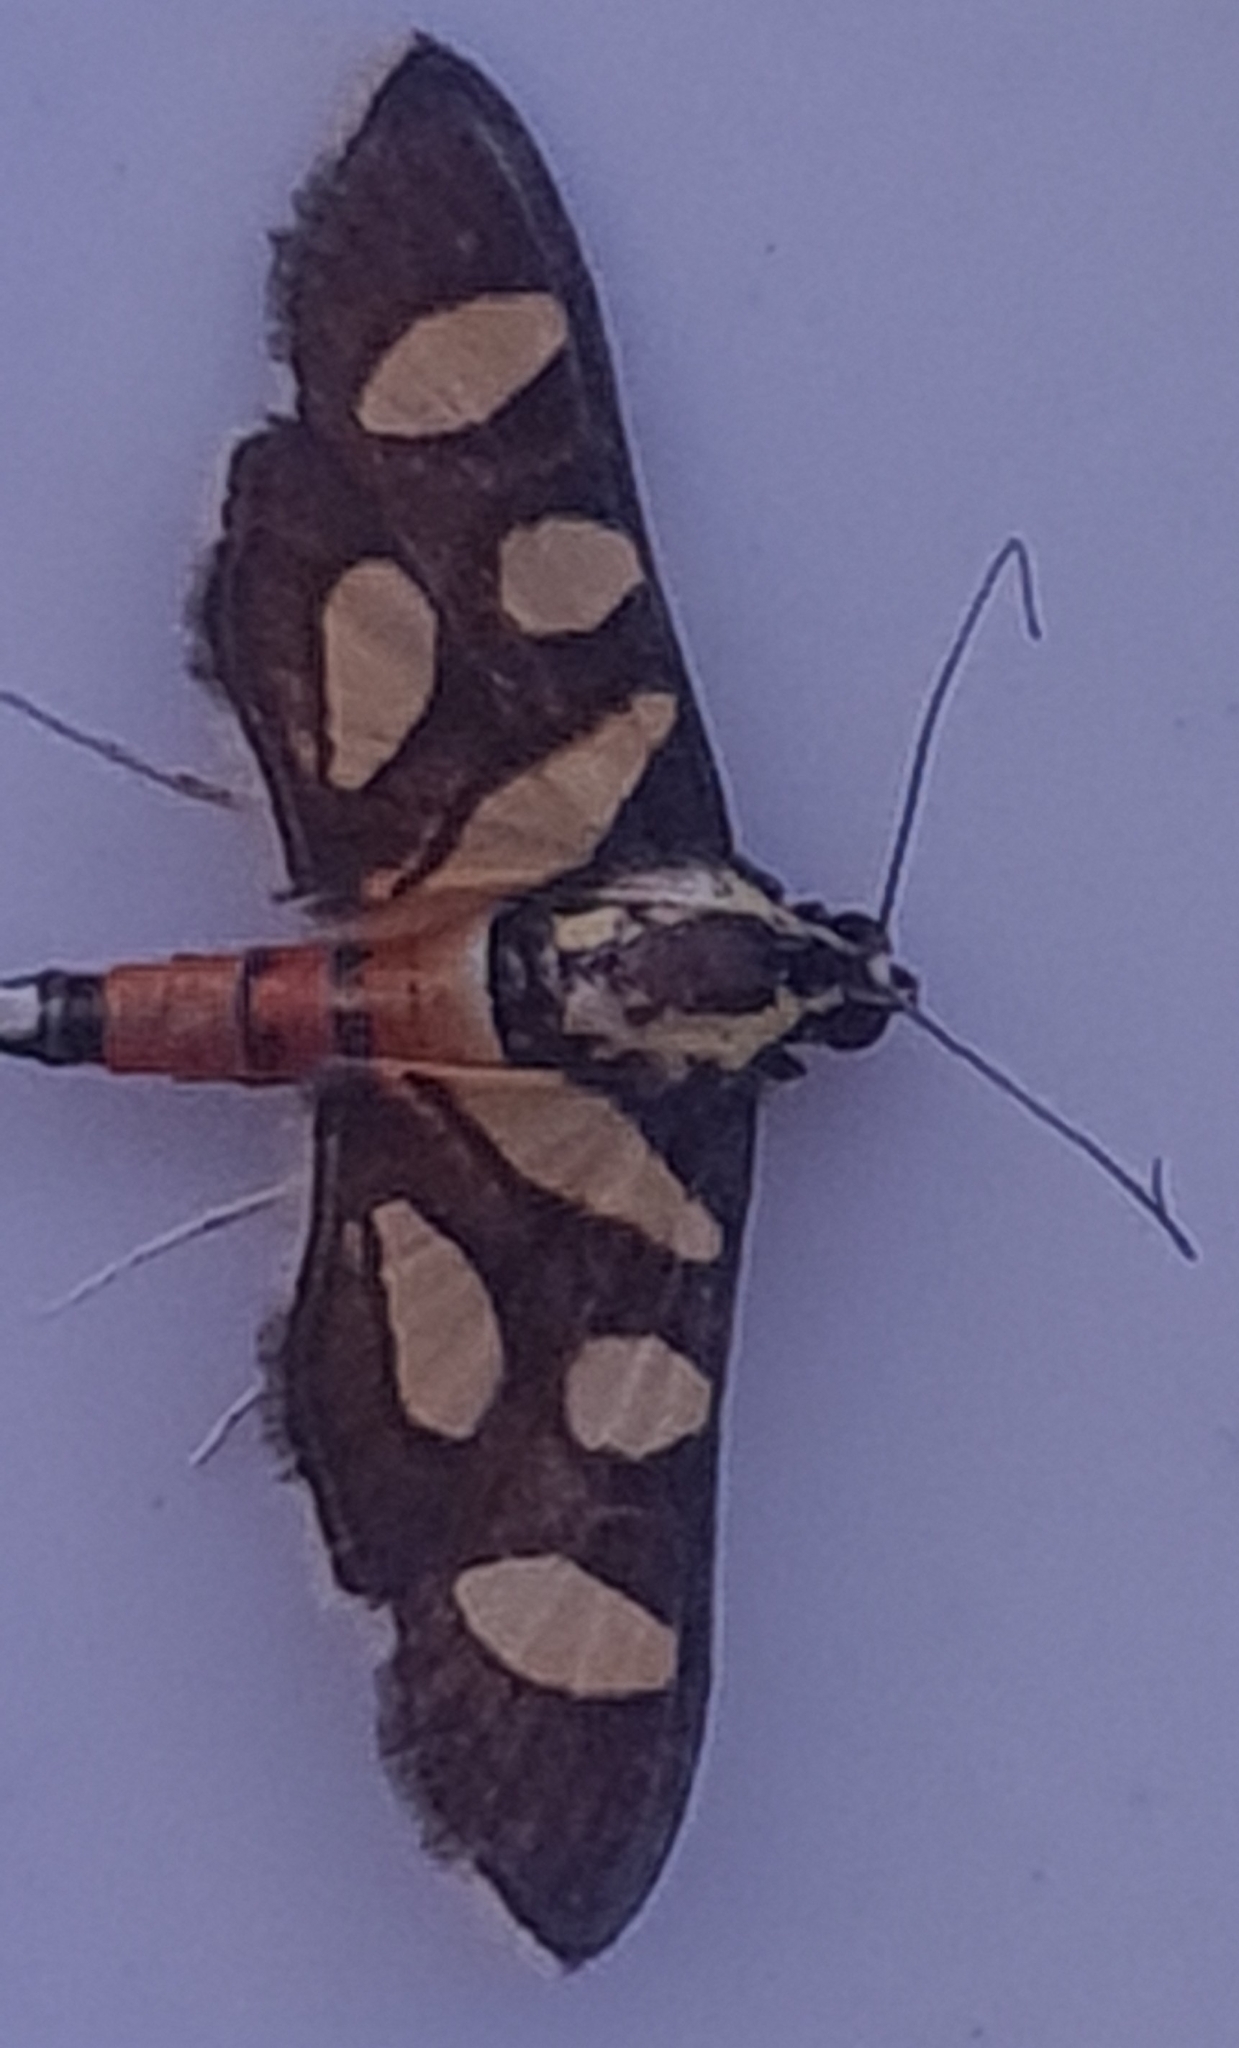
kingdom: Animalia
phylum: Arthropoda
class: Insecta
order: Lepidoptera
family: Crambidae
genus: Syngamia
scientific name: Syngamia florella
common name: Orange-spotted flower moth
